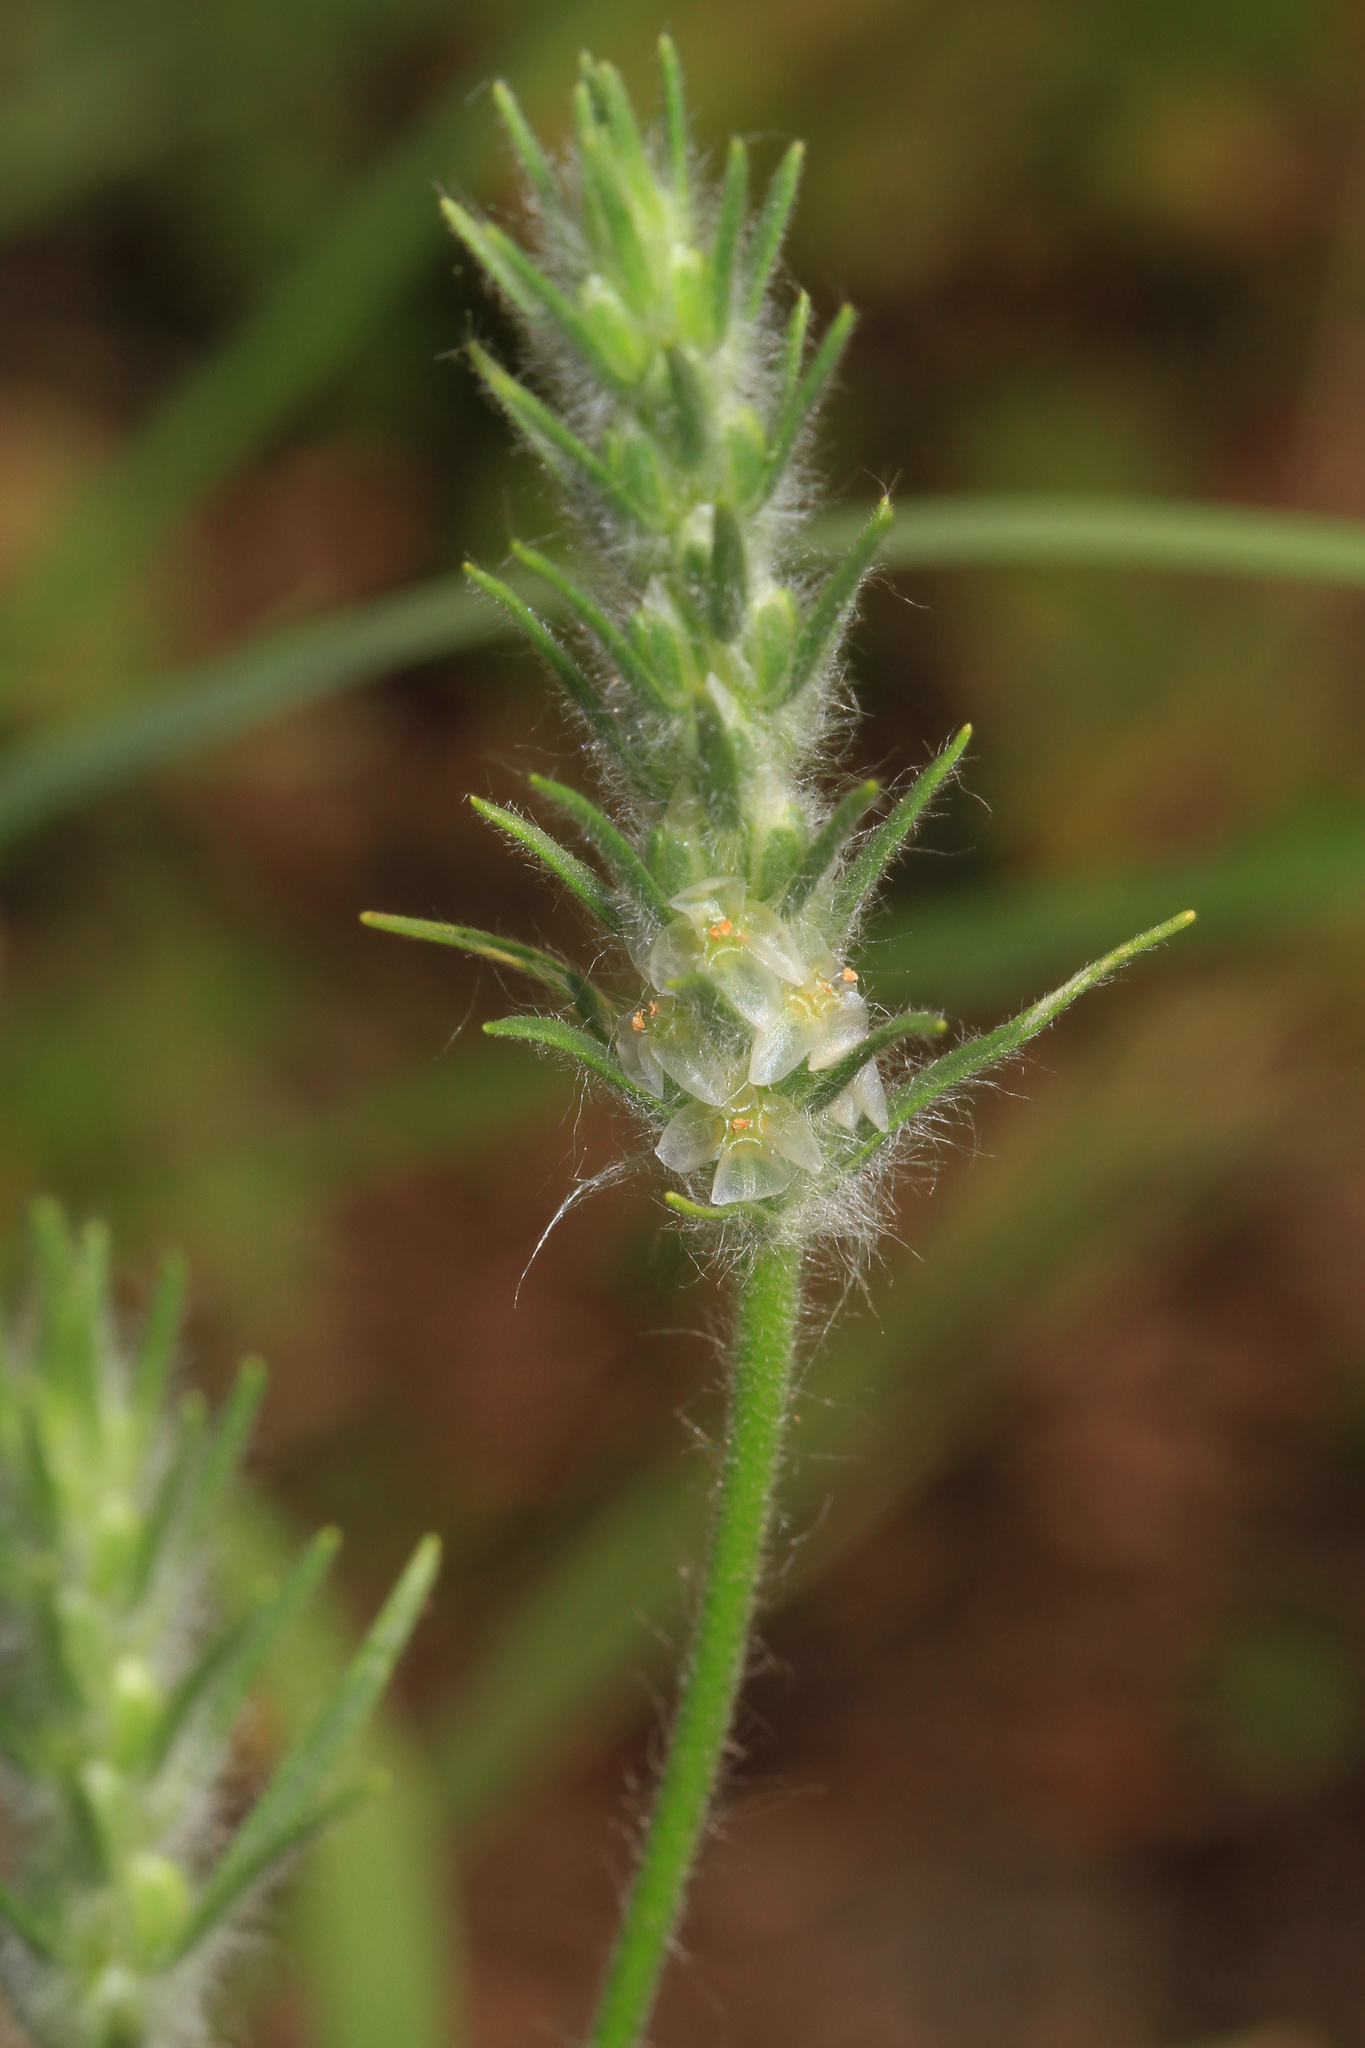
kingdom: Plantae
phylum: Tracheophyta
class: Magnoliopsida
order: Lamiales
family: Plantaginaceae
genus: Plantago
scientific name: Plantago aristata
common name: Bracted plantain
